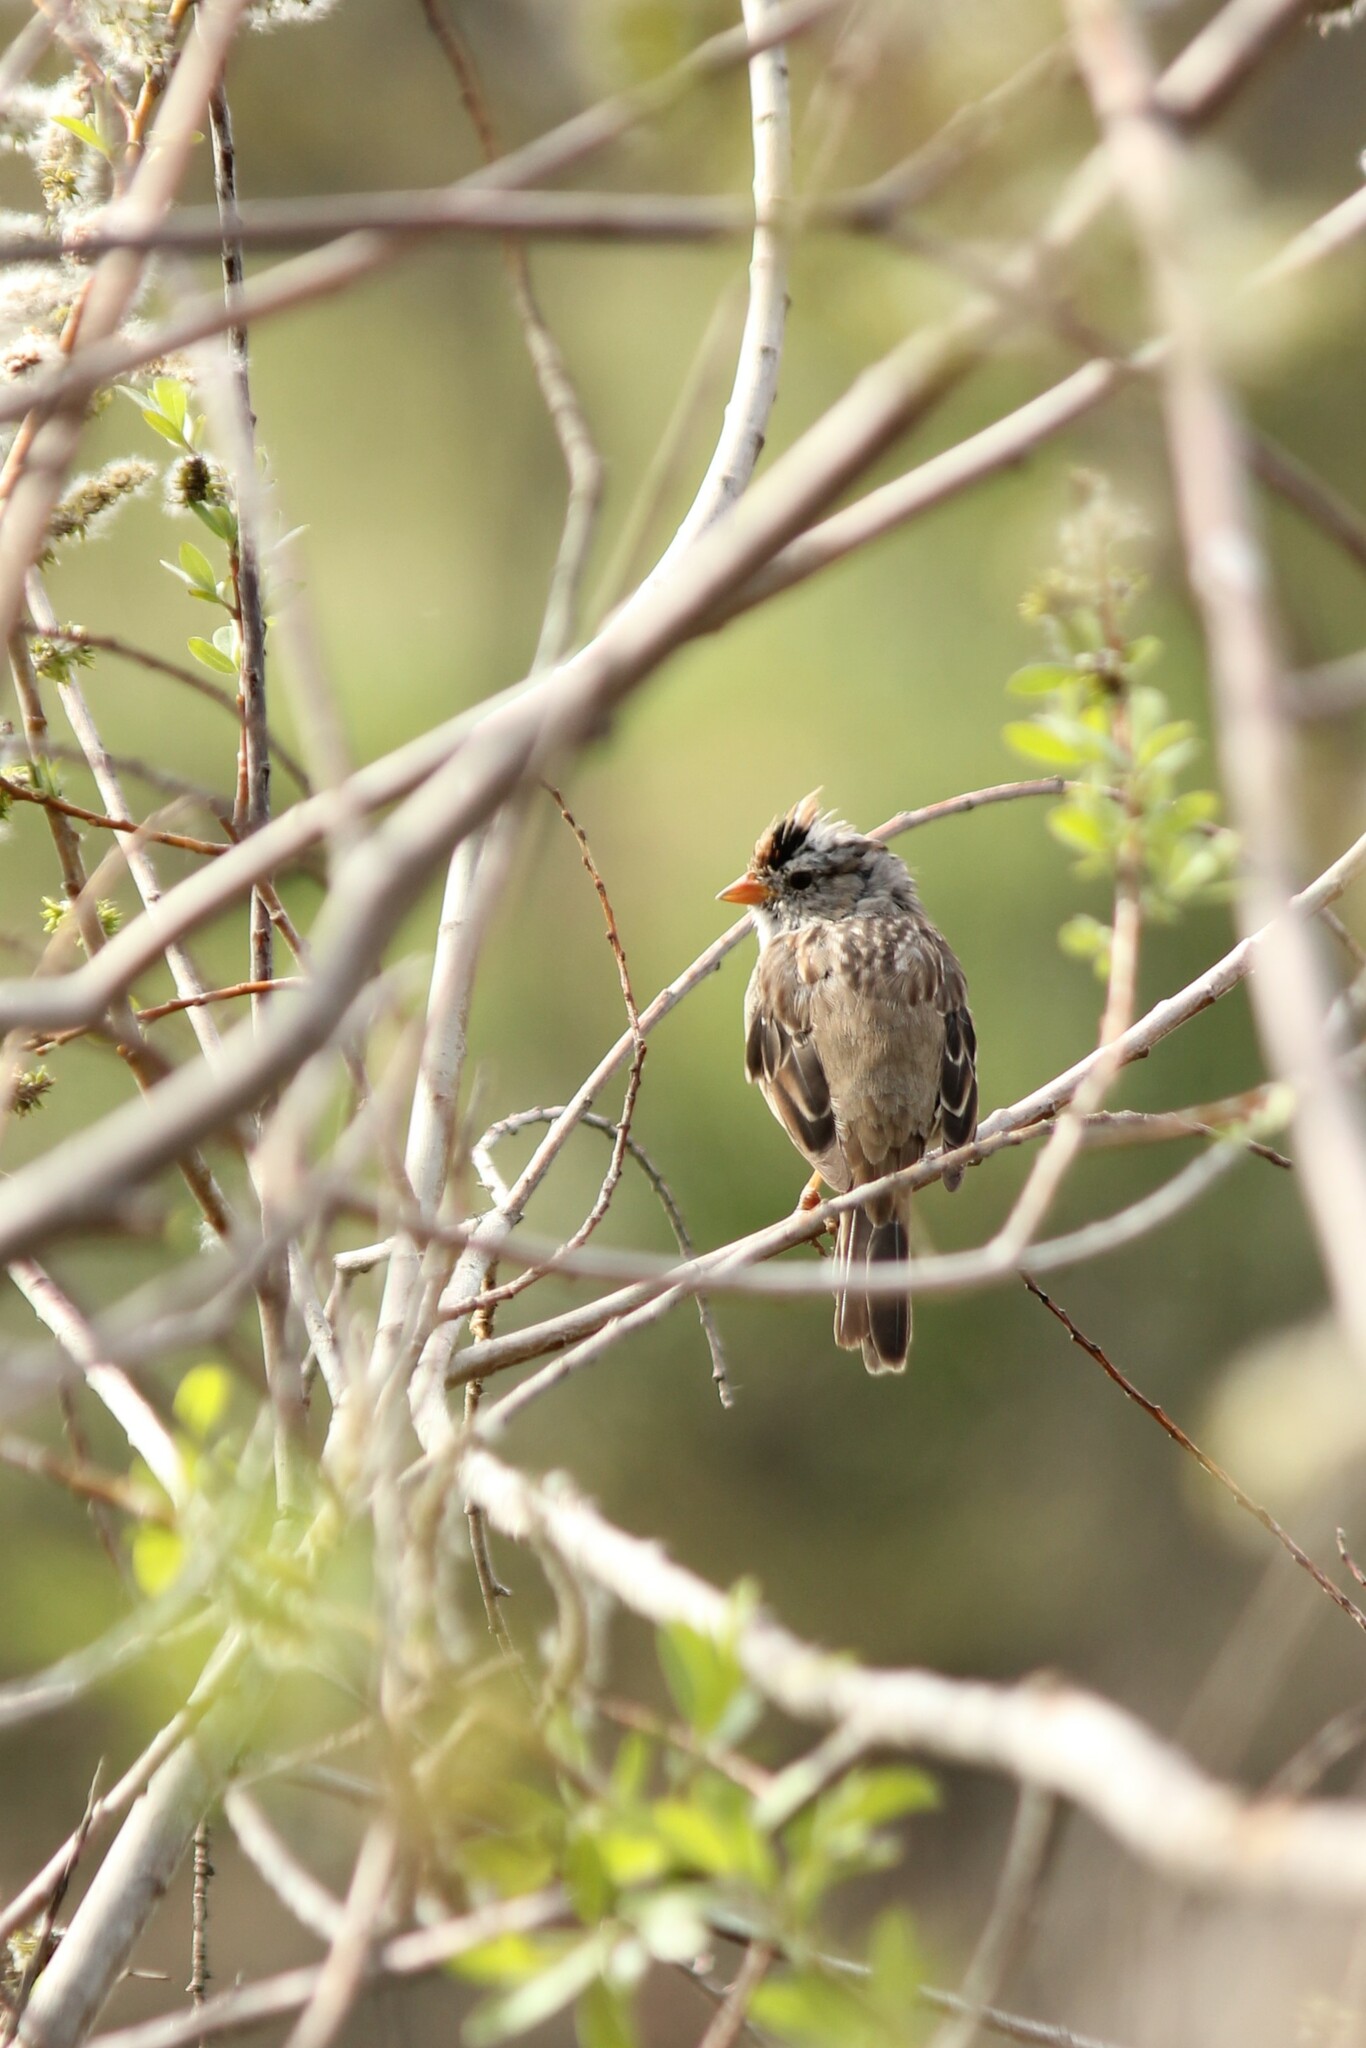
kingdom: Animalia
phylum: Chordata
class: Aves
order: Passeriformes
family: Passerellidae
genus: Zonotrichia
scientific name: Zonotrichia leucophrys
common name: White-crowned sparrow
